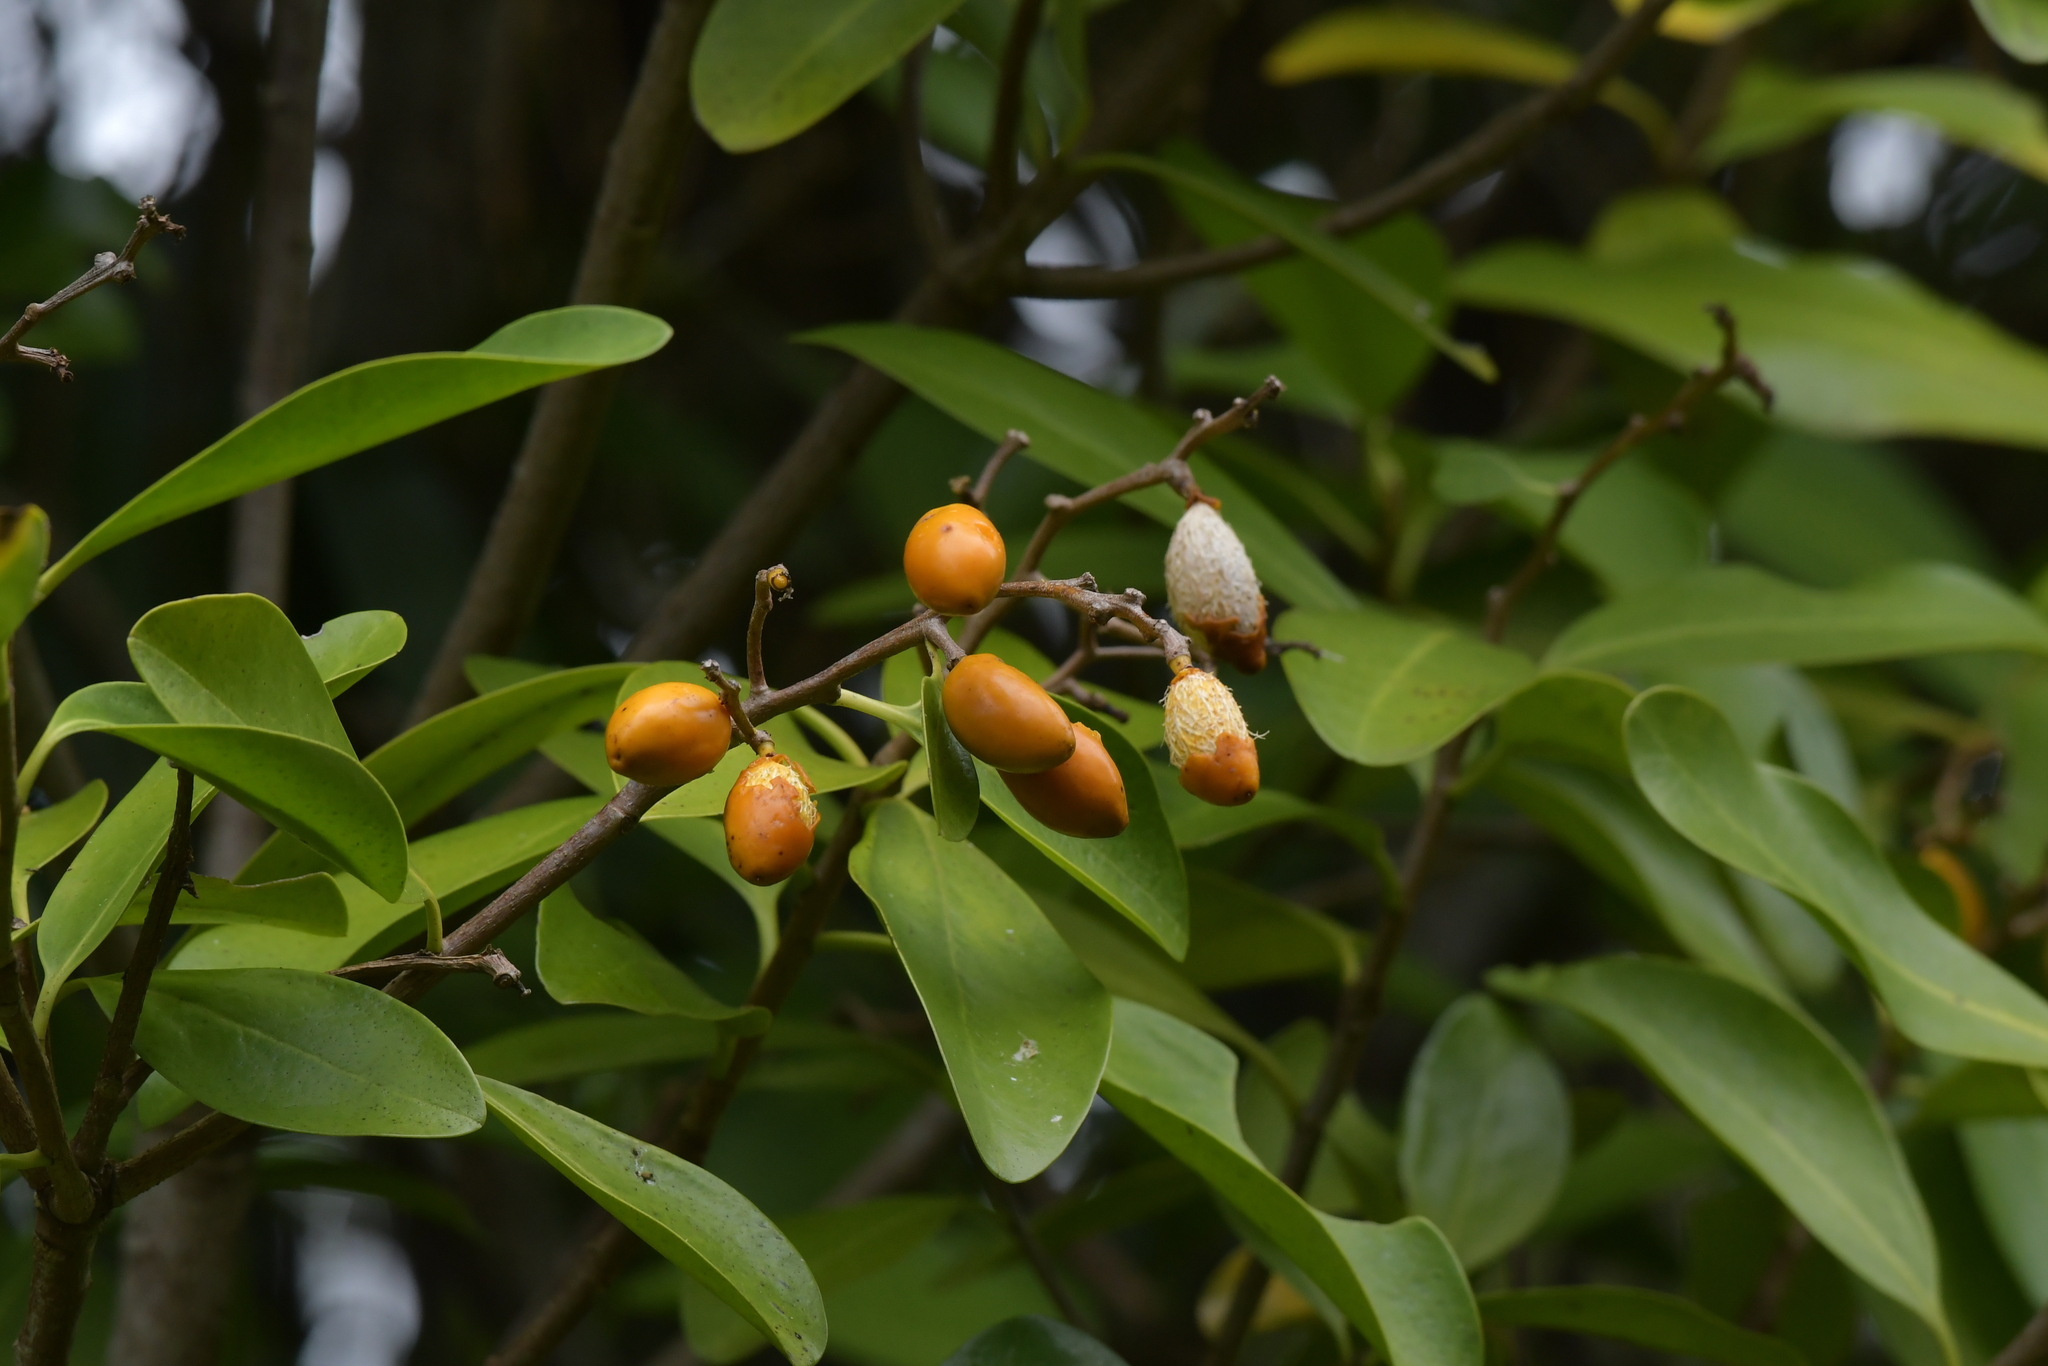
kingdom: Plantae
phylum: Tracheophyta
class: Magnoliopsida
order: Cucurbitales
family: Corynocarpaceae
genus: Corynocarpus
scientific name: Corynocarpus laevigatus
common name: New zealand laurel
